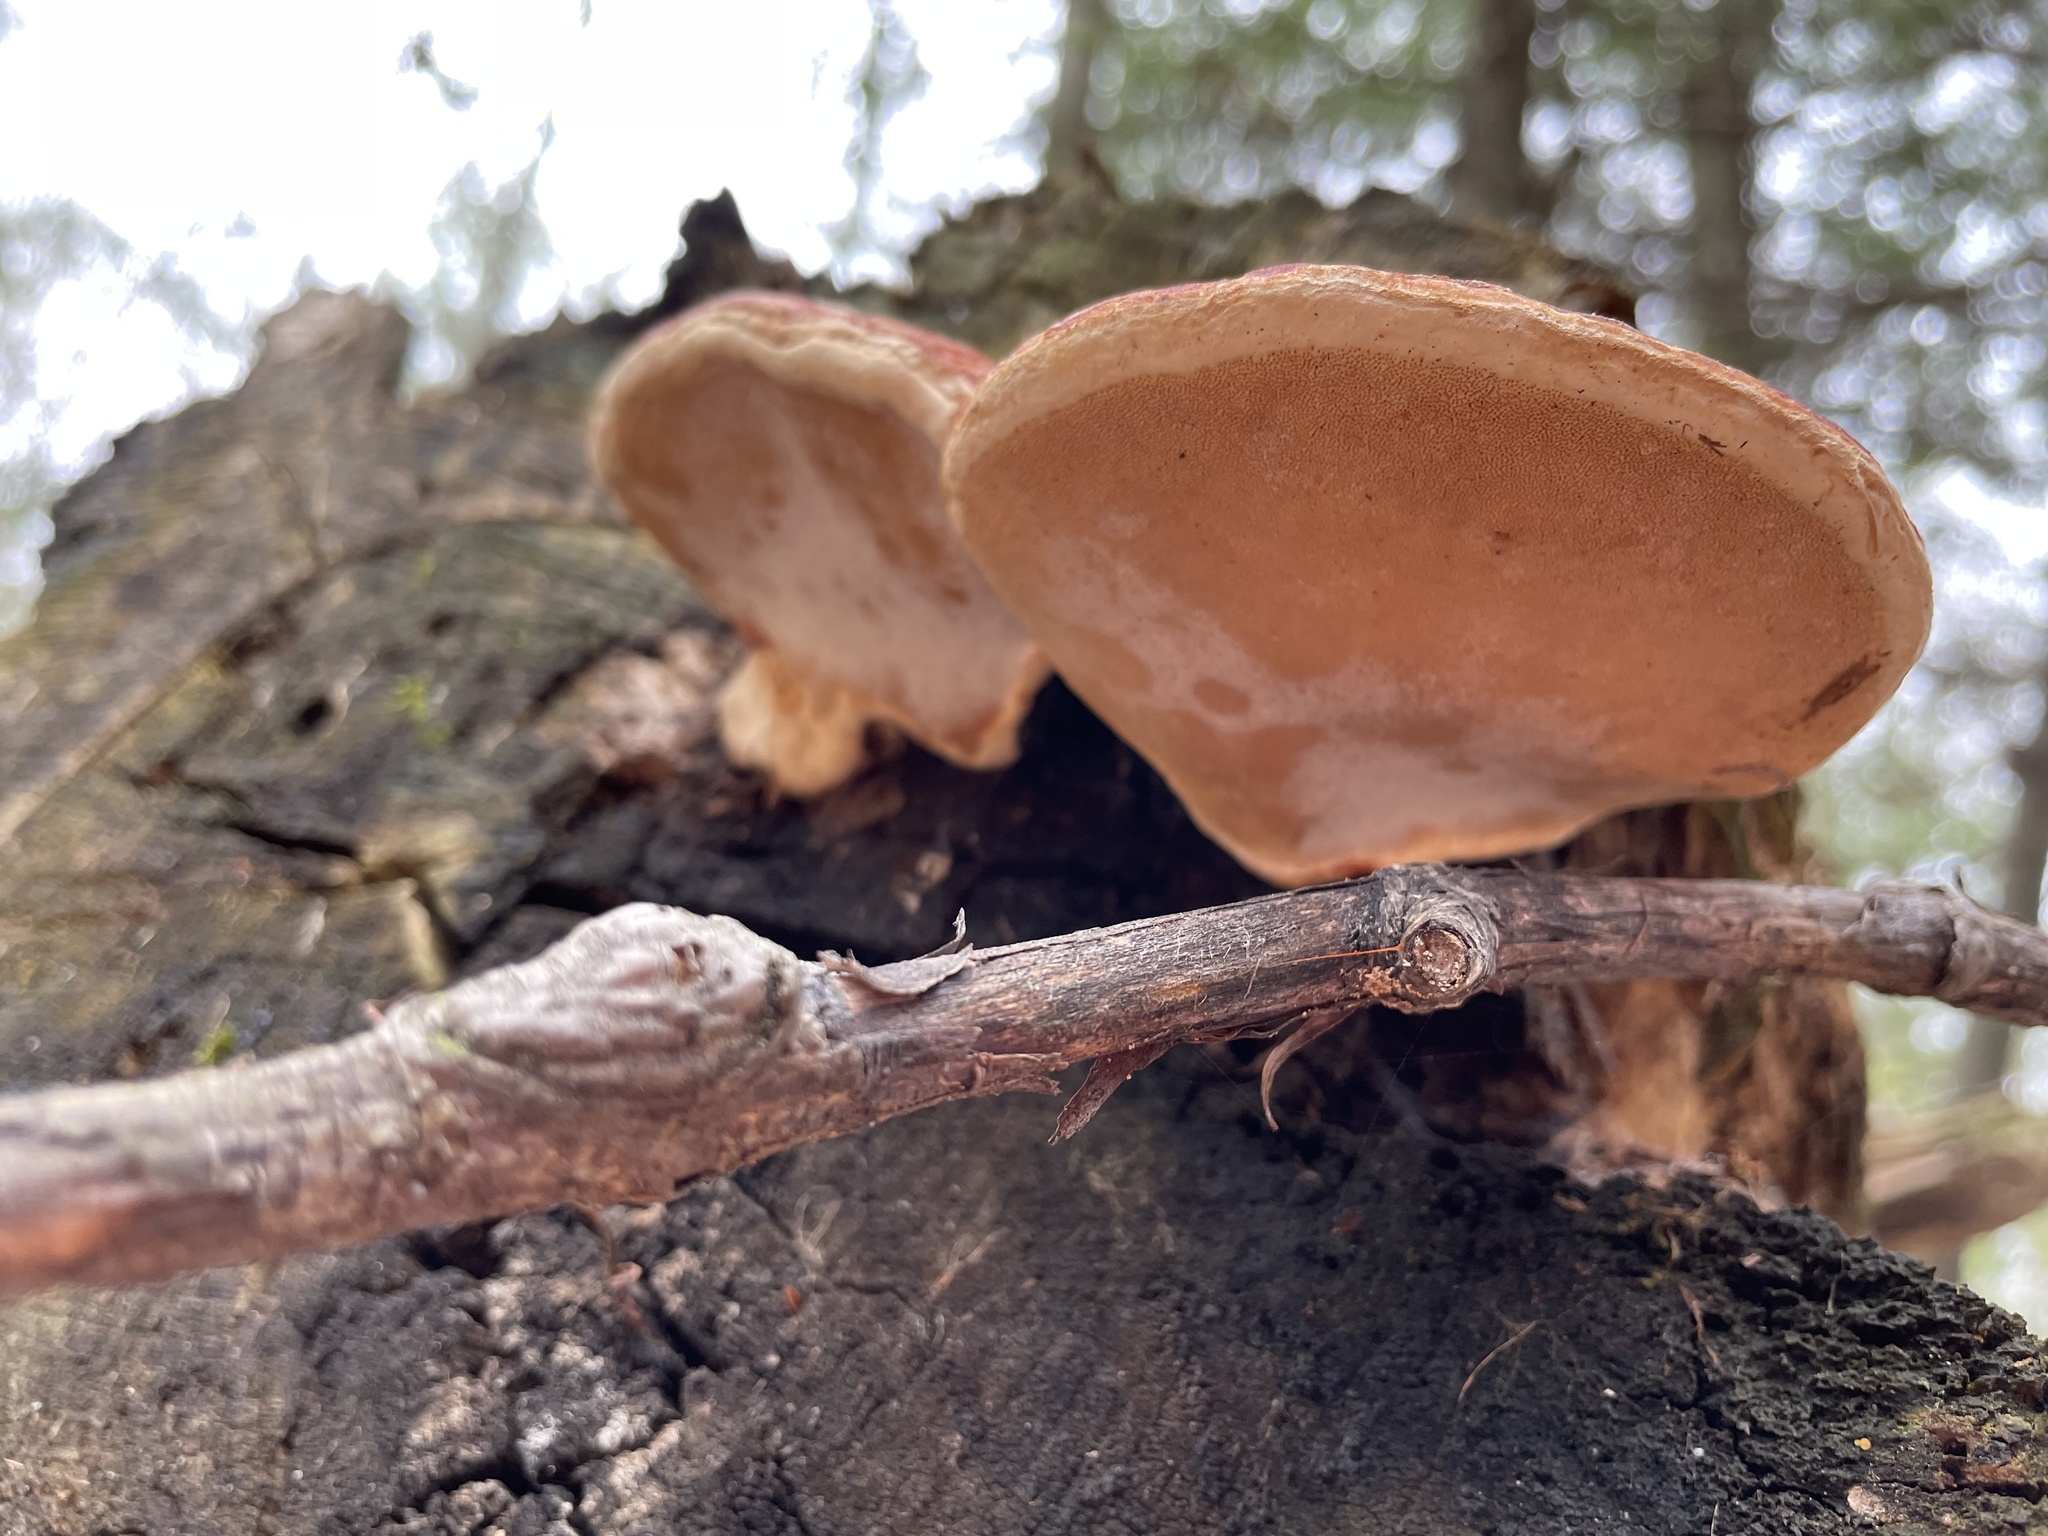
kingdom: Fungi
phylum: Basidiomycota
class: Agaricomycetes
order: Polyporales
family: Fomitopsidaceae
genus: Fomitopsis
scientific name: Fomitopsis mounceae
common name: Northern red belt
